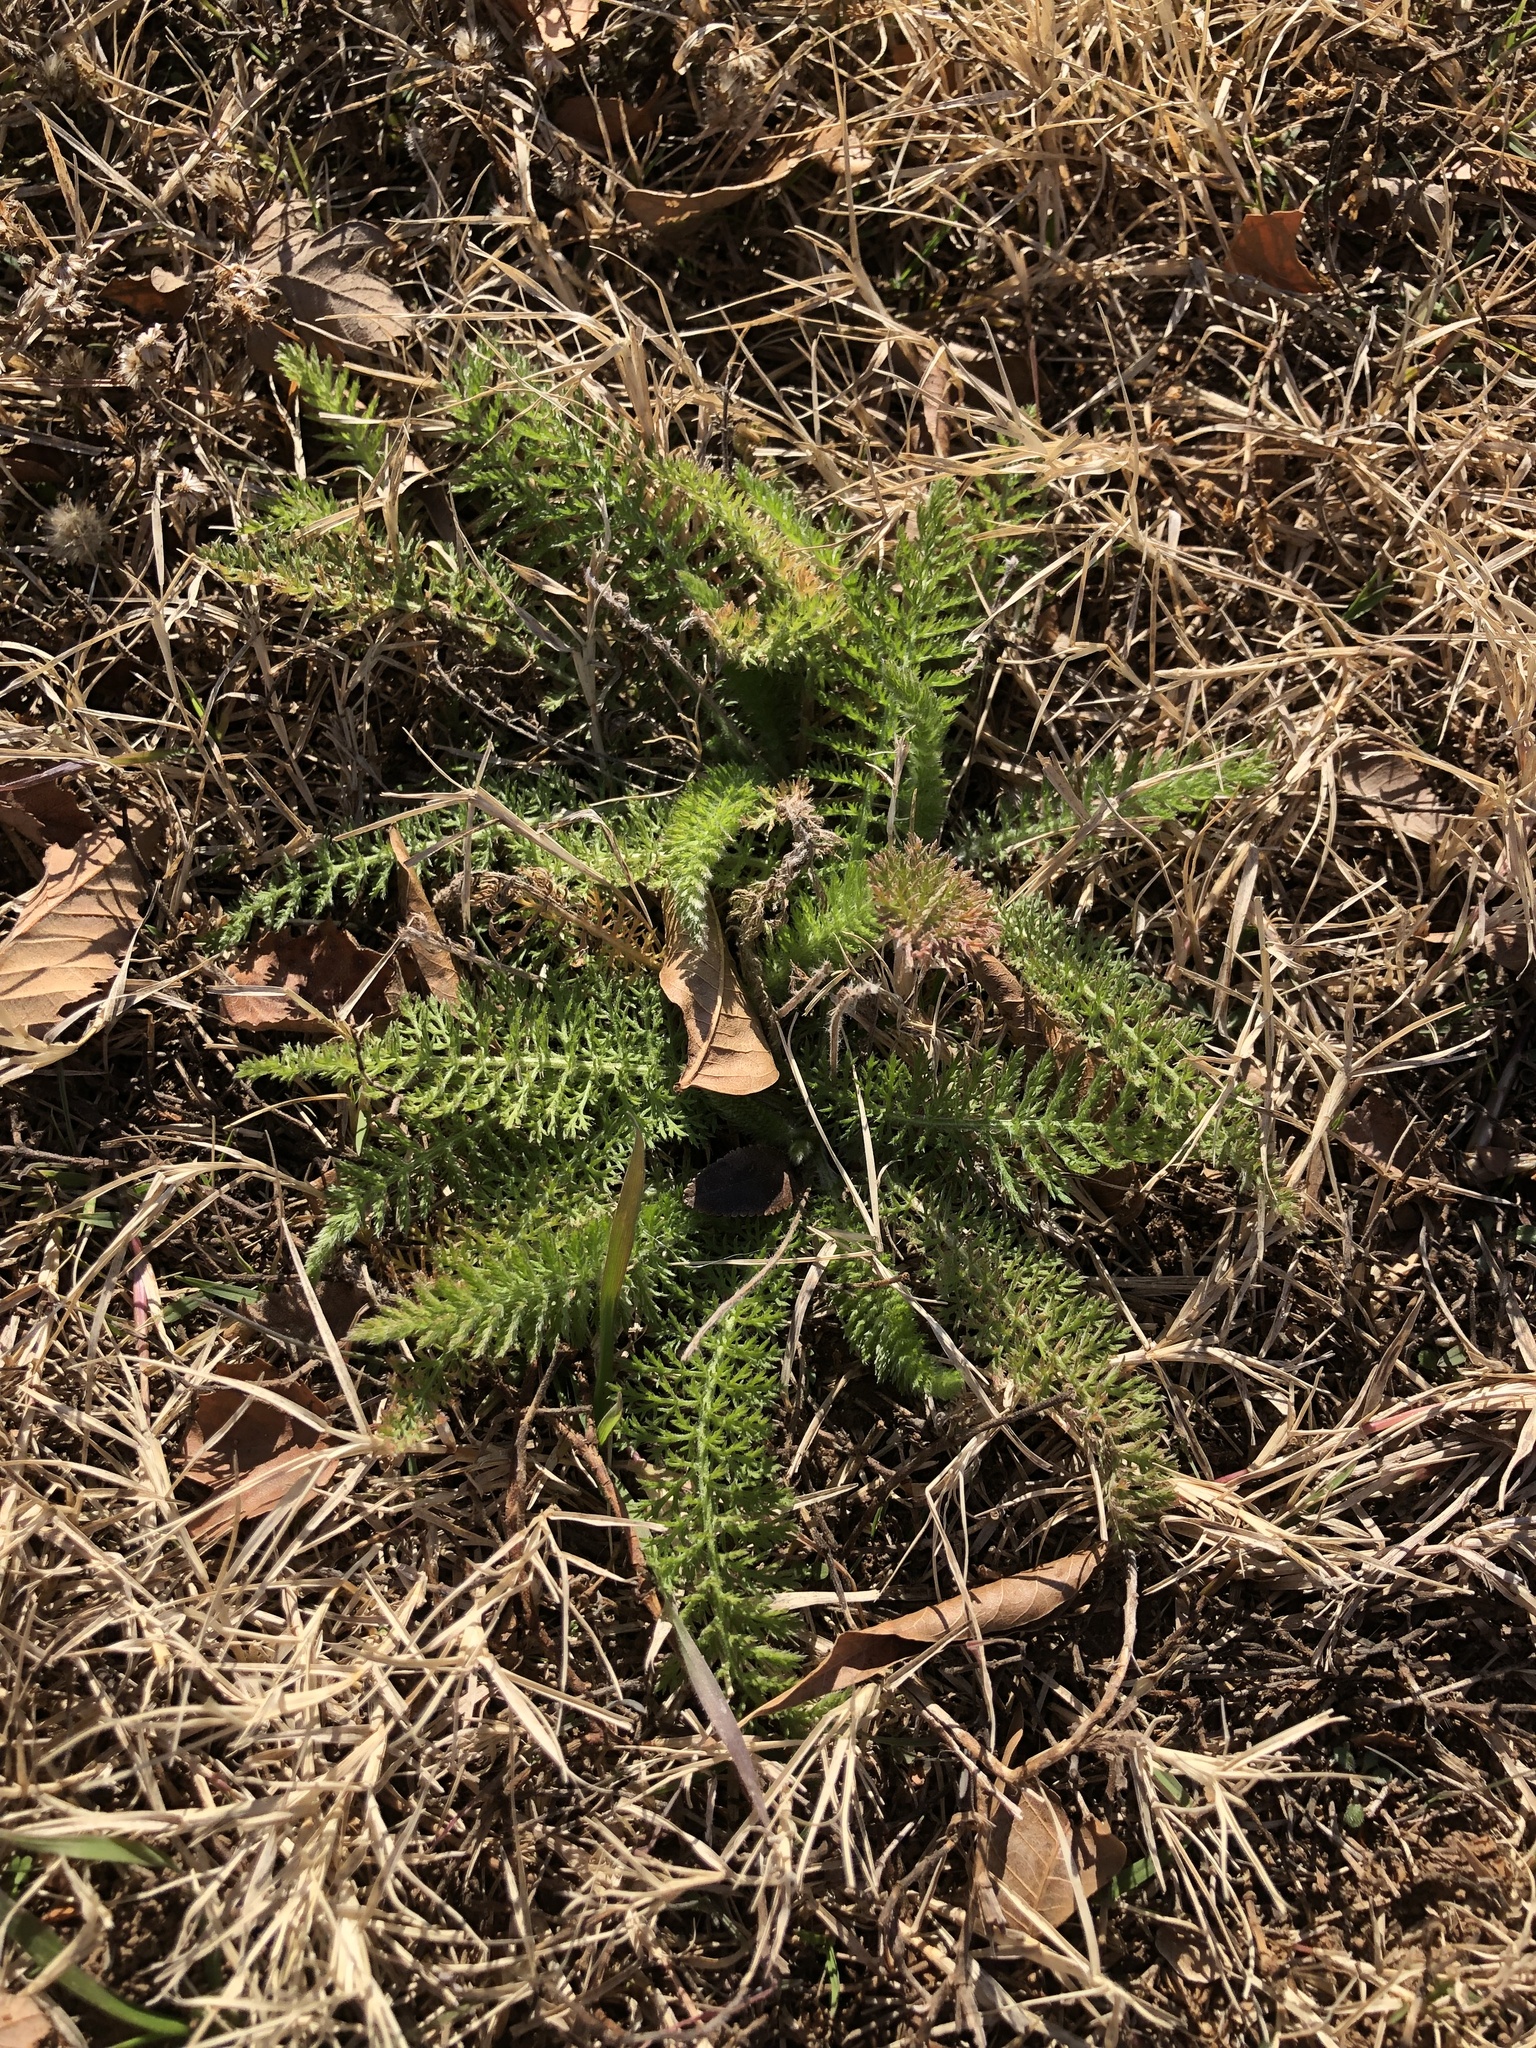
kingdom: Plantae
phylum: Tracheophyta
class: Magnoliopsida
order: Asterales
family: Asteraceae
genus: Achillea
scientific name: Achillea millefolium
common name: Yarrow
